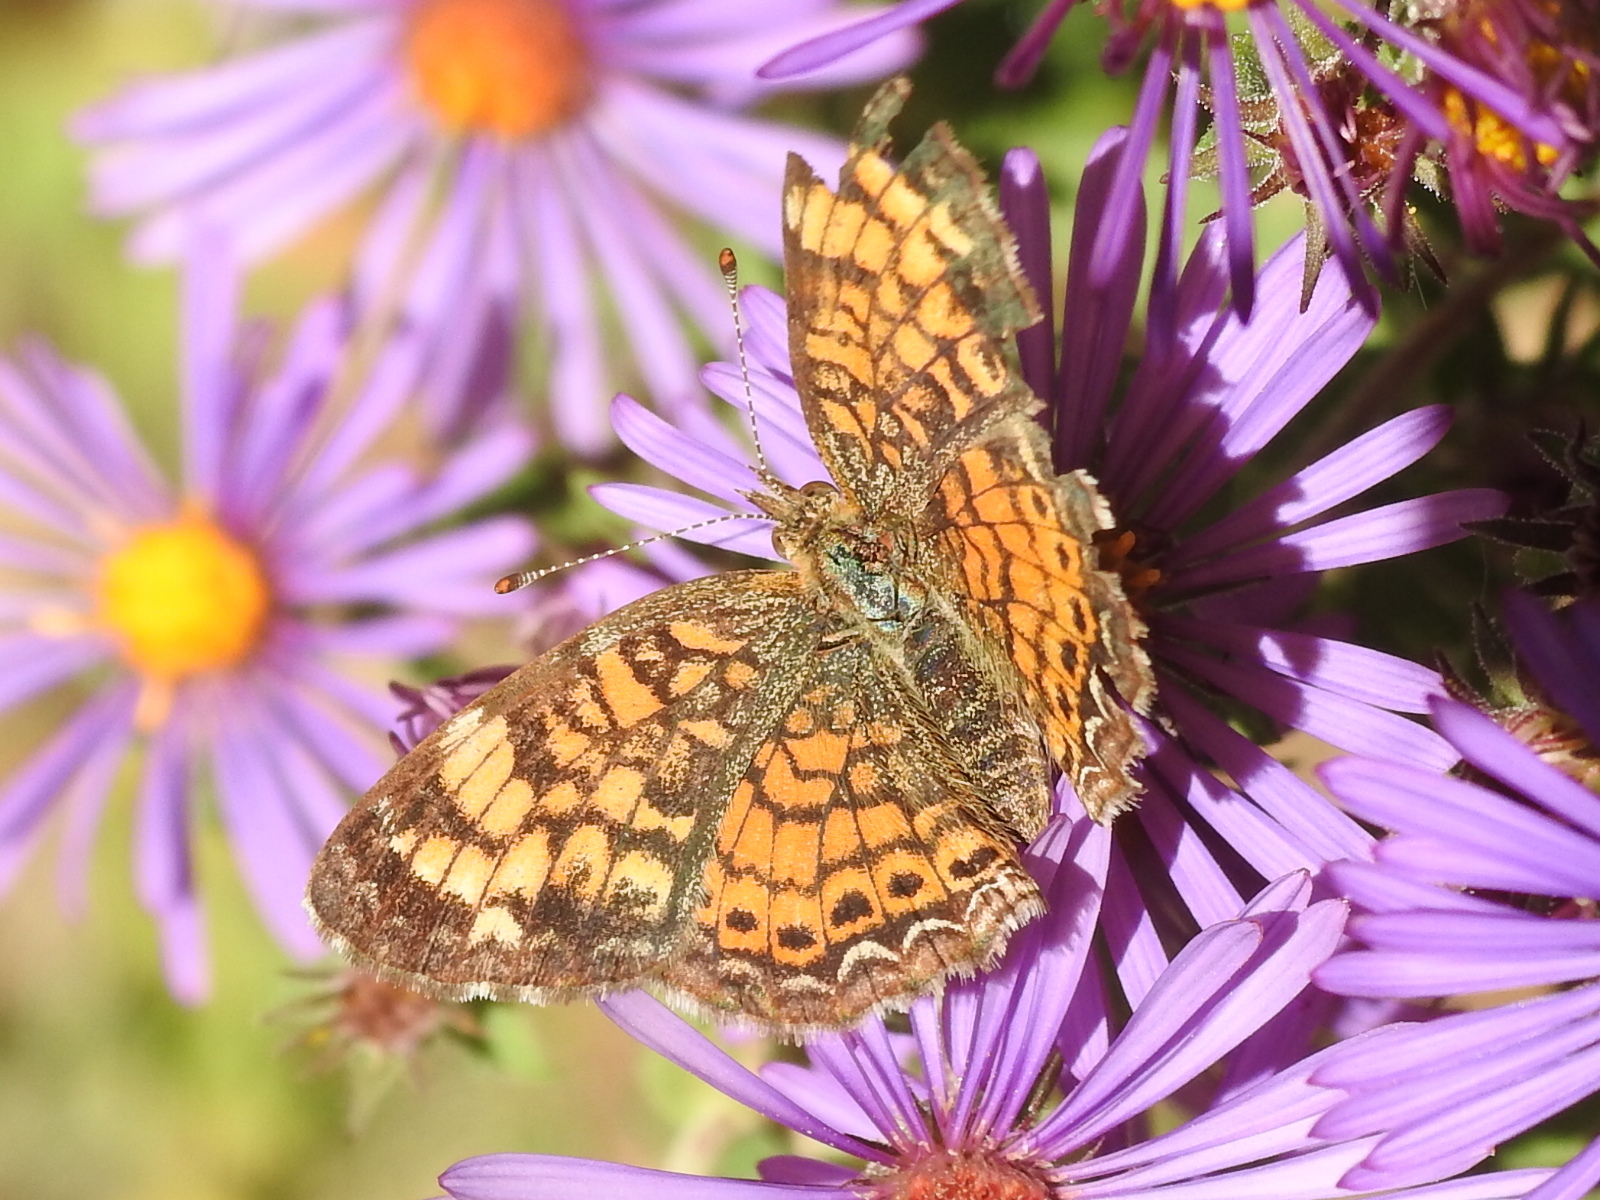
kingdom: Animalia
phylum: Arthropoda
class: Insecta
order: Lepidoptera
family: Nymphalidae
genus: Phyciodes
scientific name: Phyciodes tharos
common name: Pearl crescent
